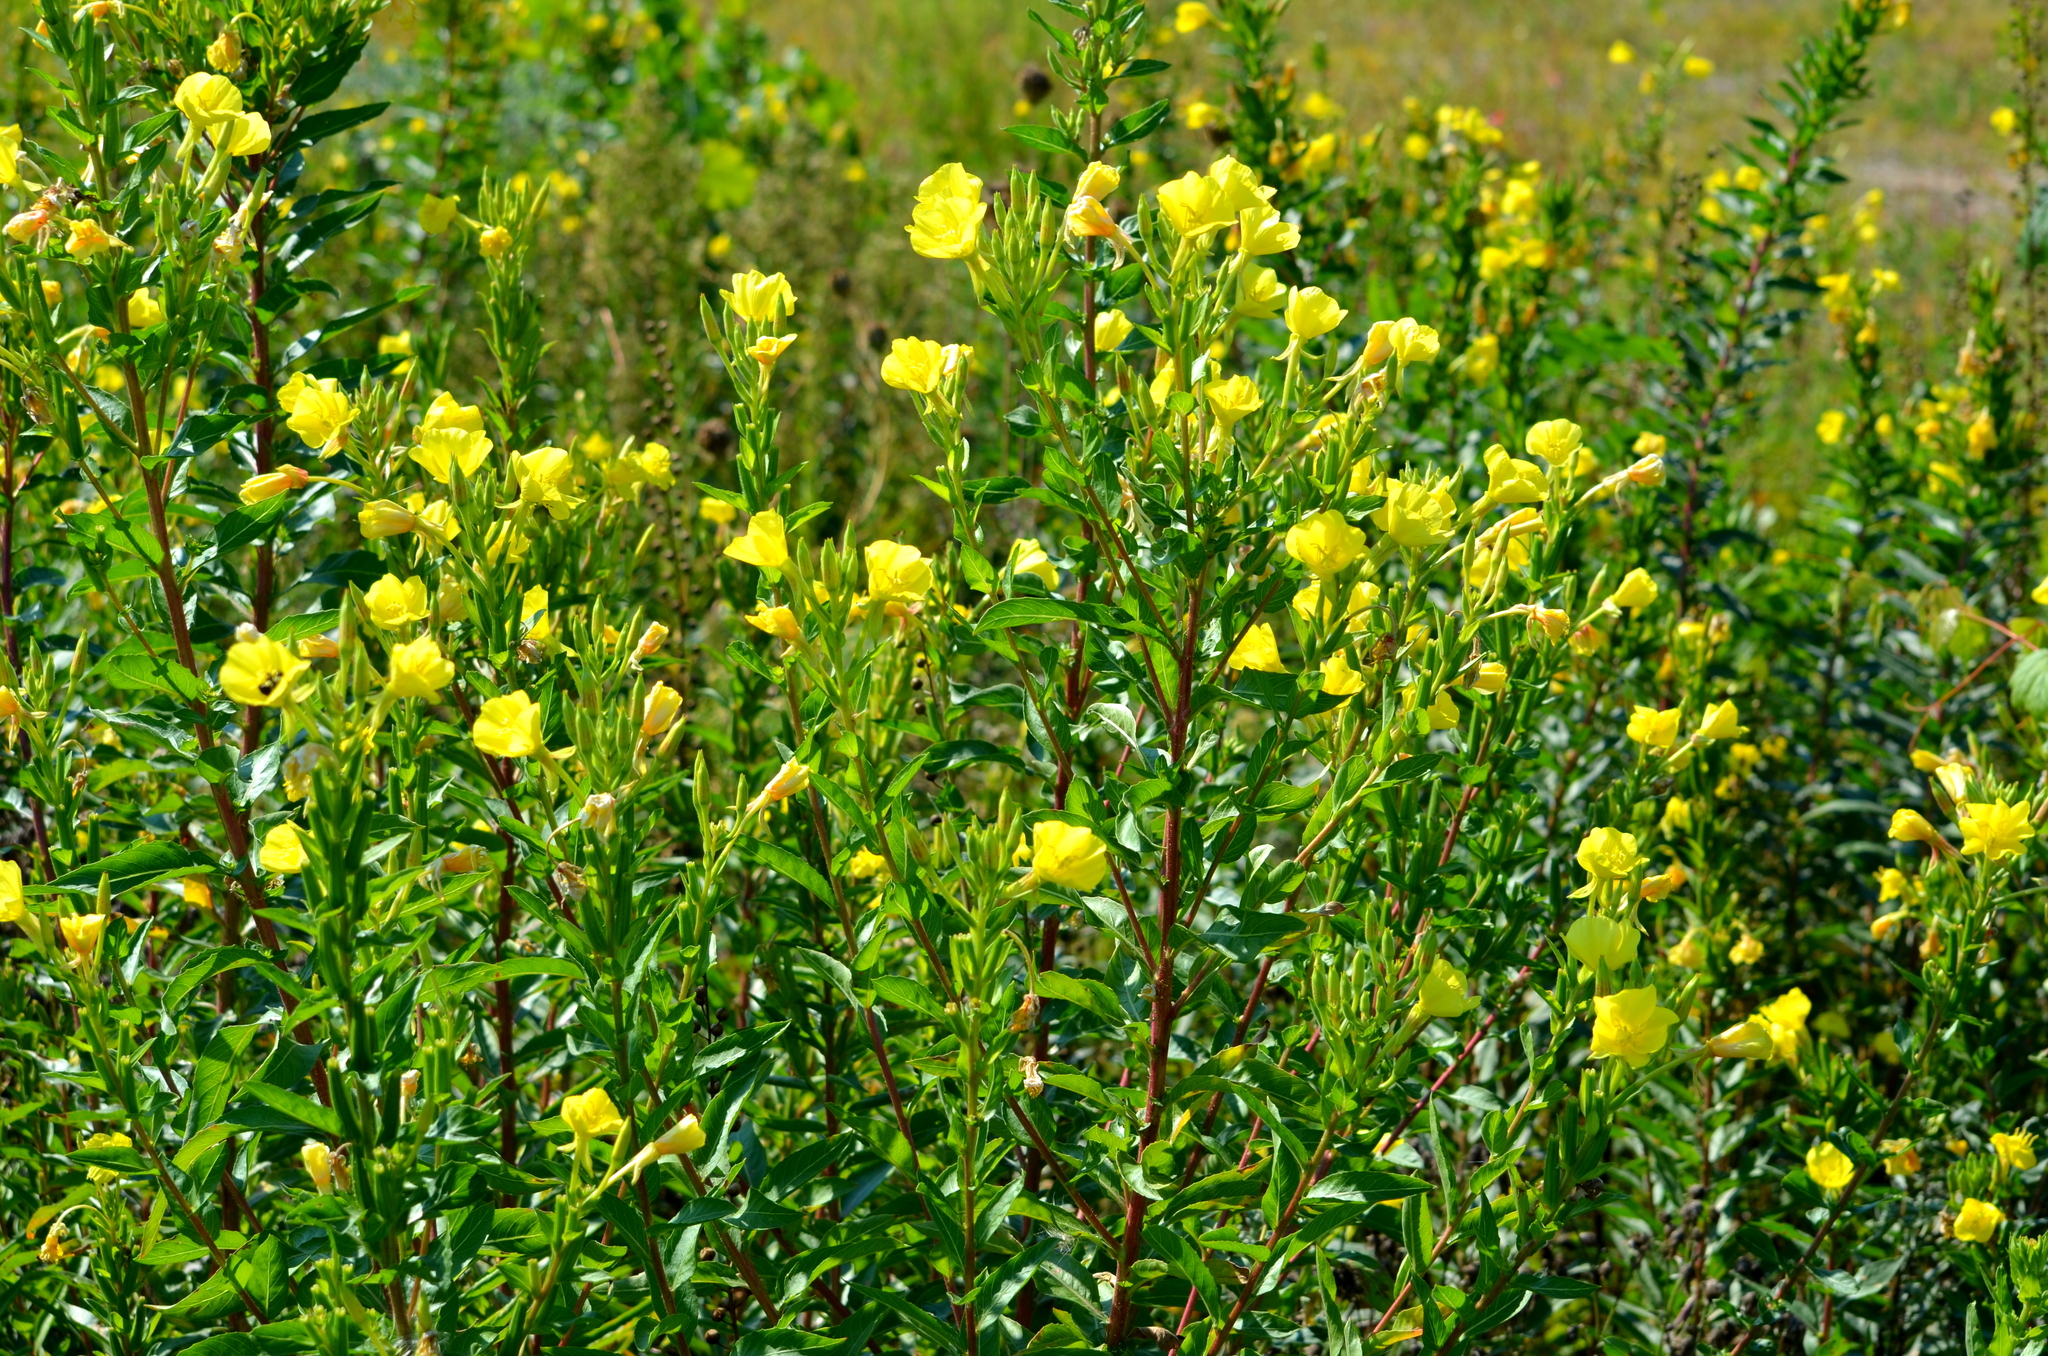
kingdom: Plantae
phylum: Tracheophyta
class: Magnoliopsida
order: Myrtales
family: Onagraceae
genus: Oenothera
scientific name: Oenothera biennis
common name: Common evening-primrose
